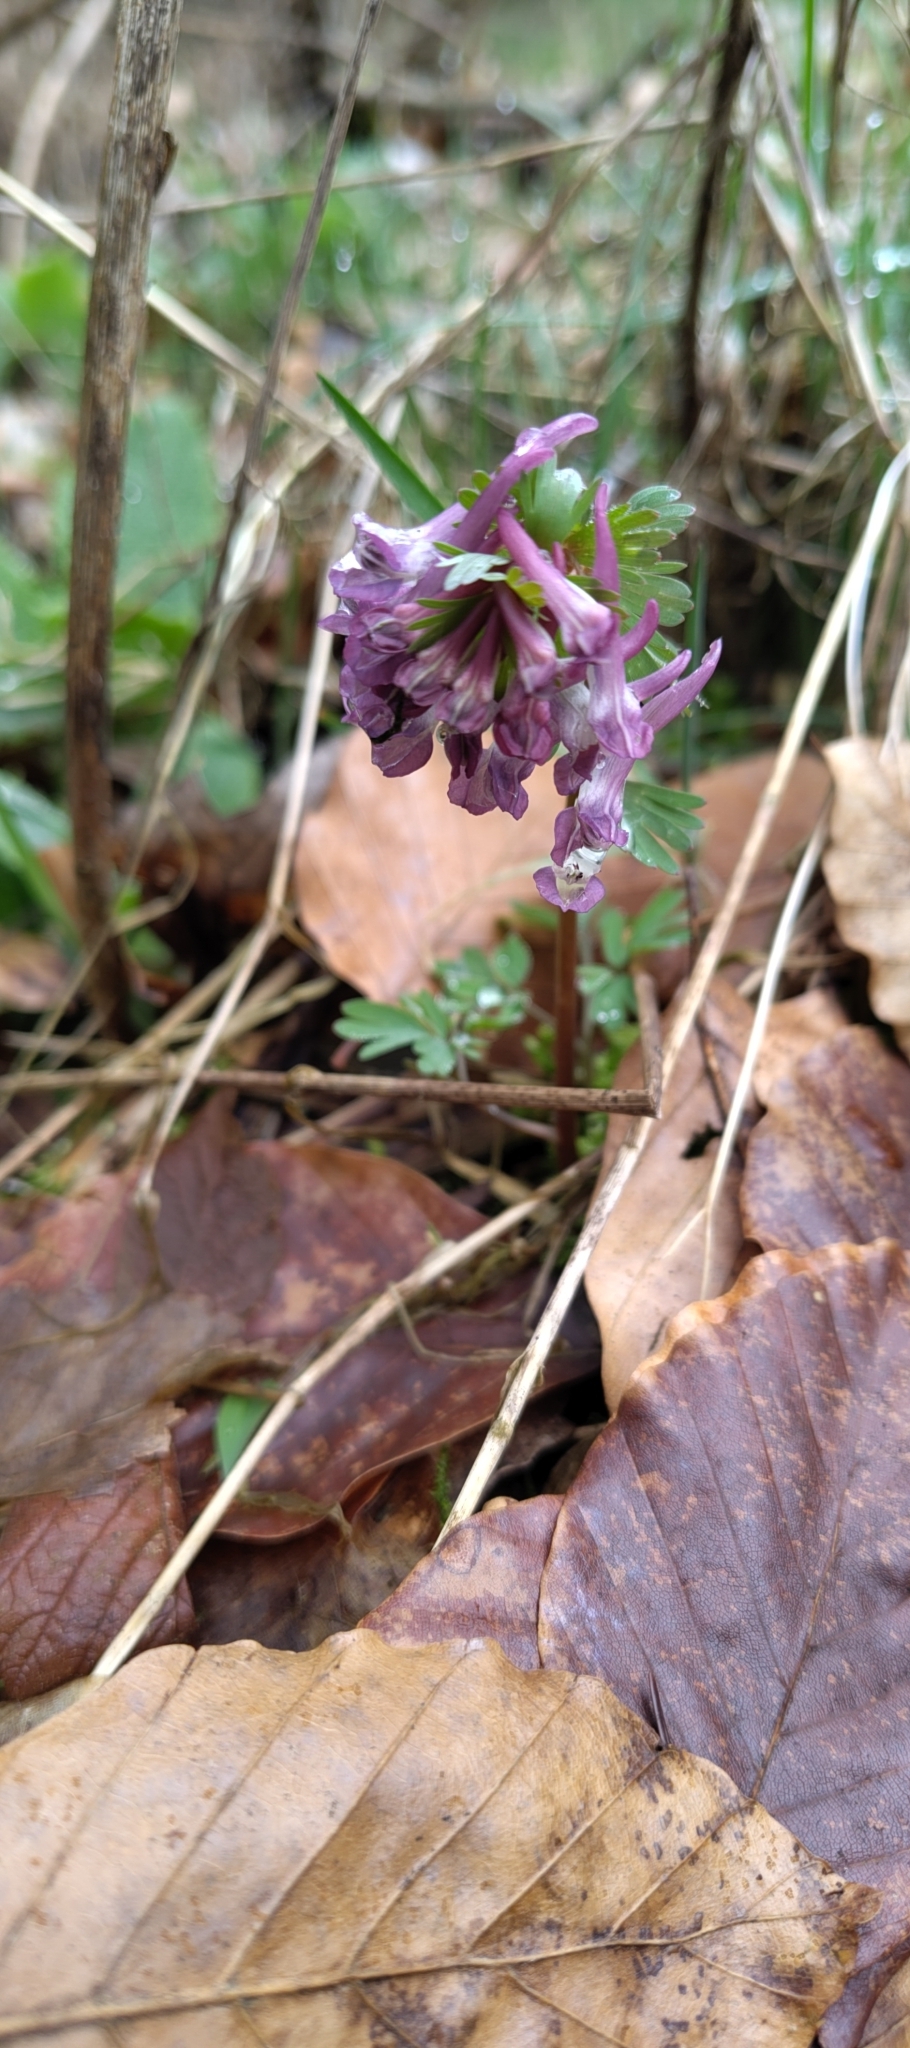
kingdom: Plantae
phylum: Tracheophyta
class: Magnoliopsida
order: Ranunculales
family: Papaveraceae
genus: Corydalis
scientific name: Corydalis solida
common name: Bird-in-a-bush
